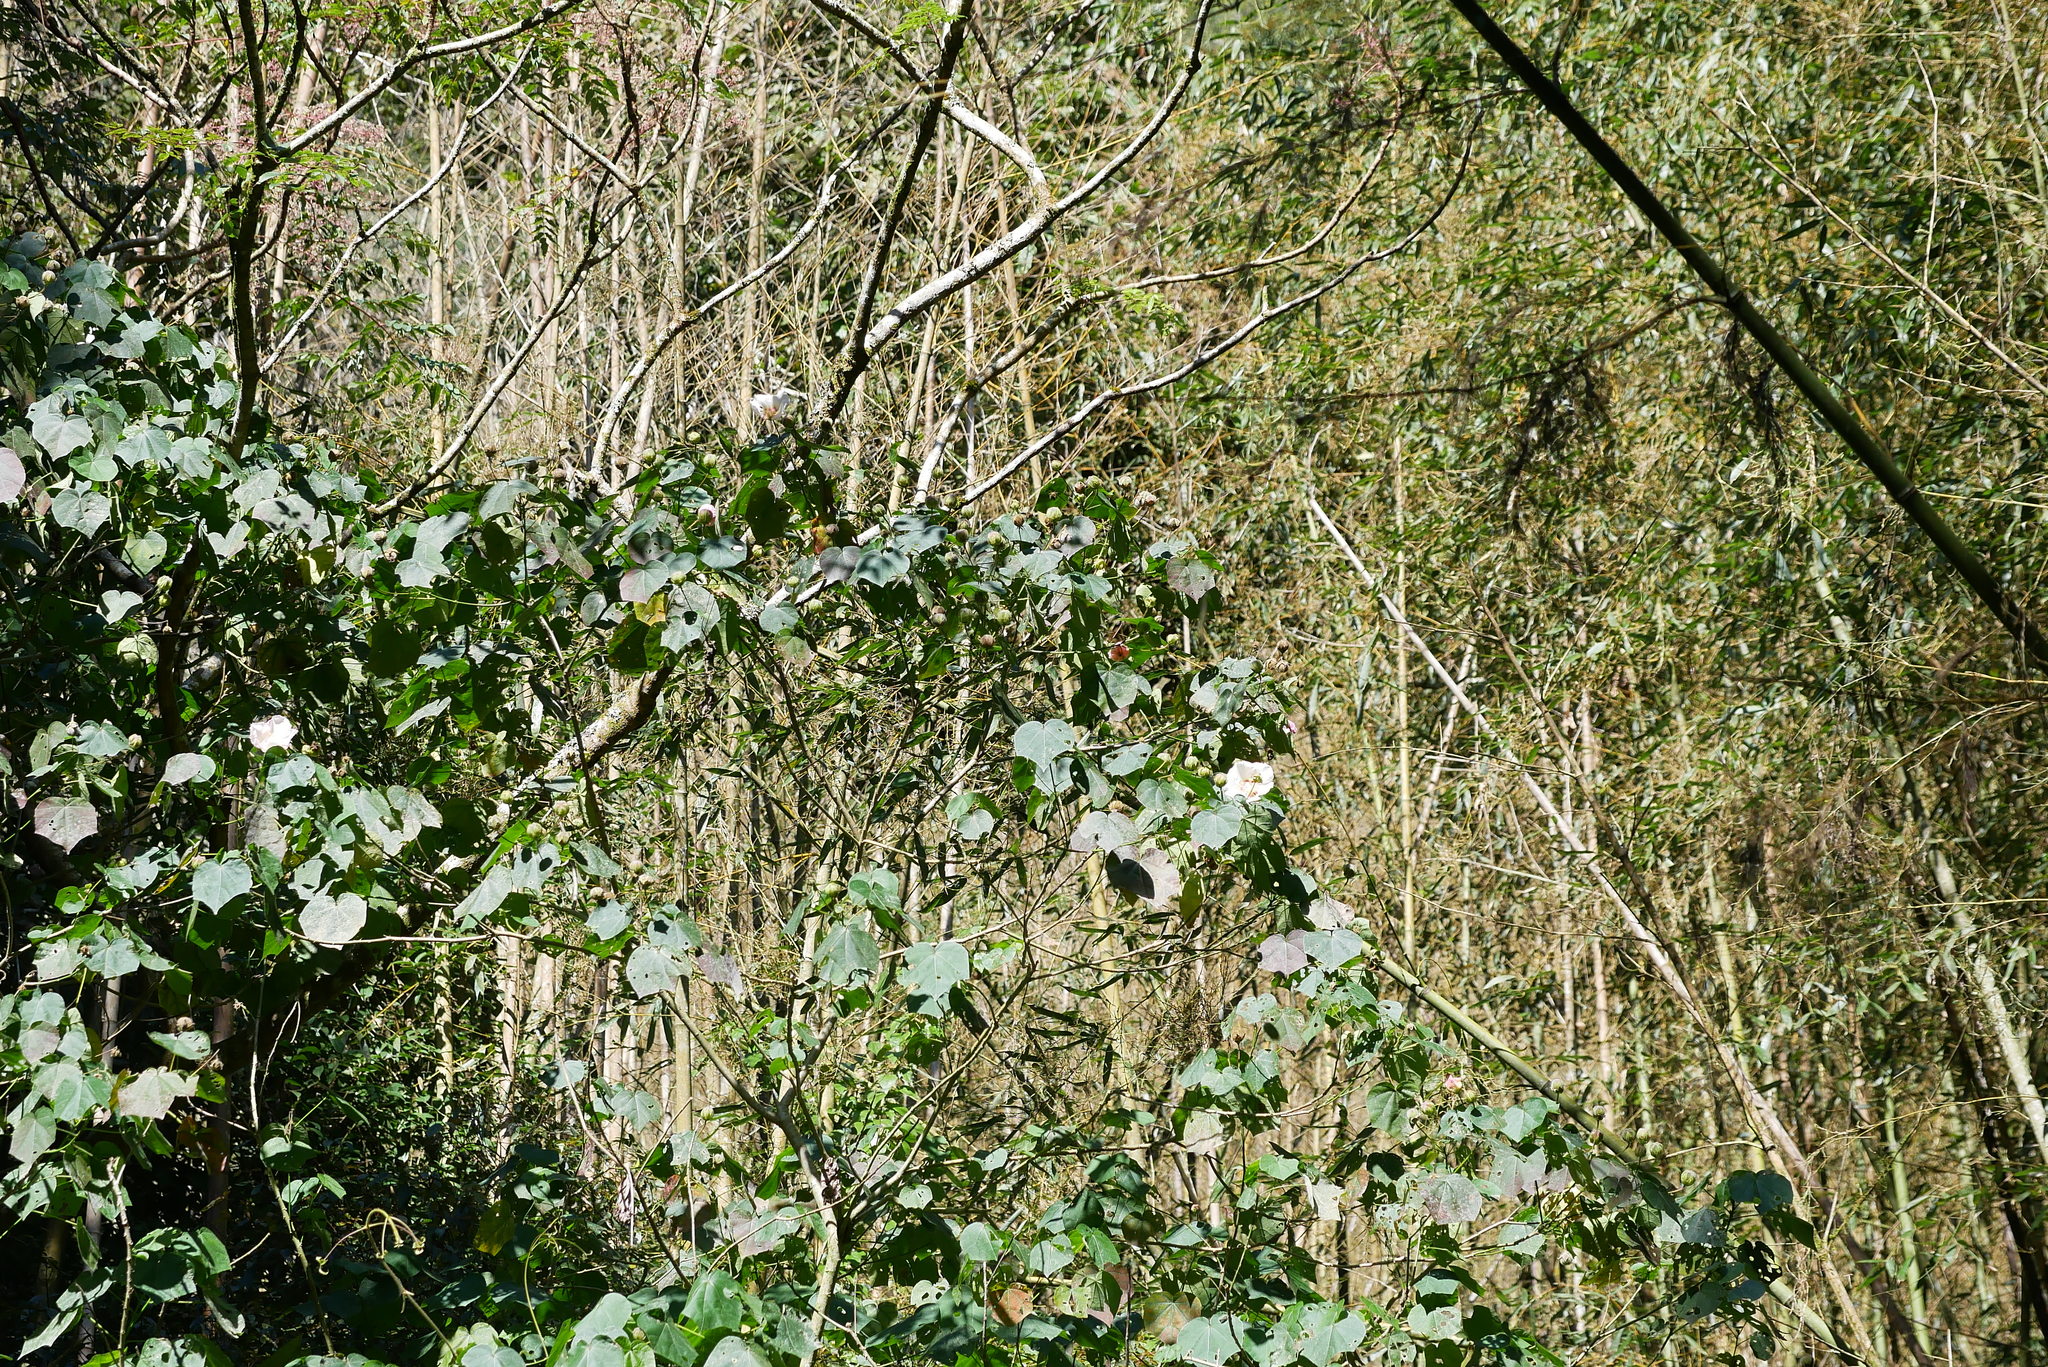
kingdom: Plantae
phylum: Tracheophyta
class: Magnoliopsida
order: Malvales
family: Malvaceae
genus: Hibiscus
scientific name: Hibiscus mutabilis
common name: Dixie rosemallow
